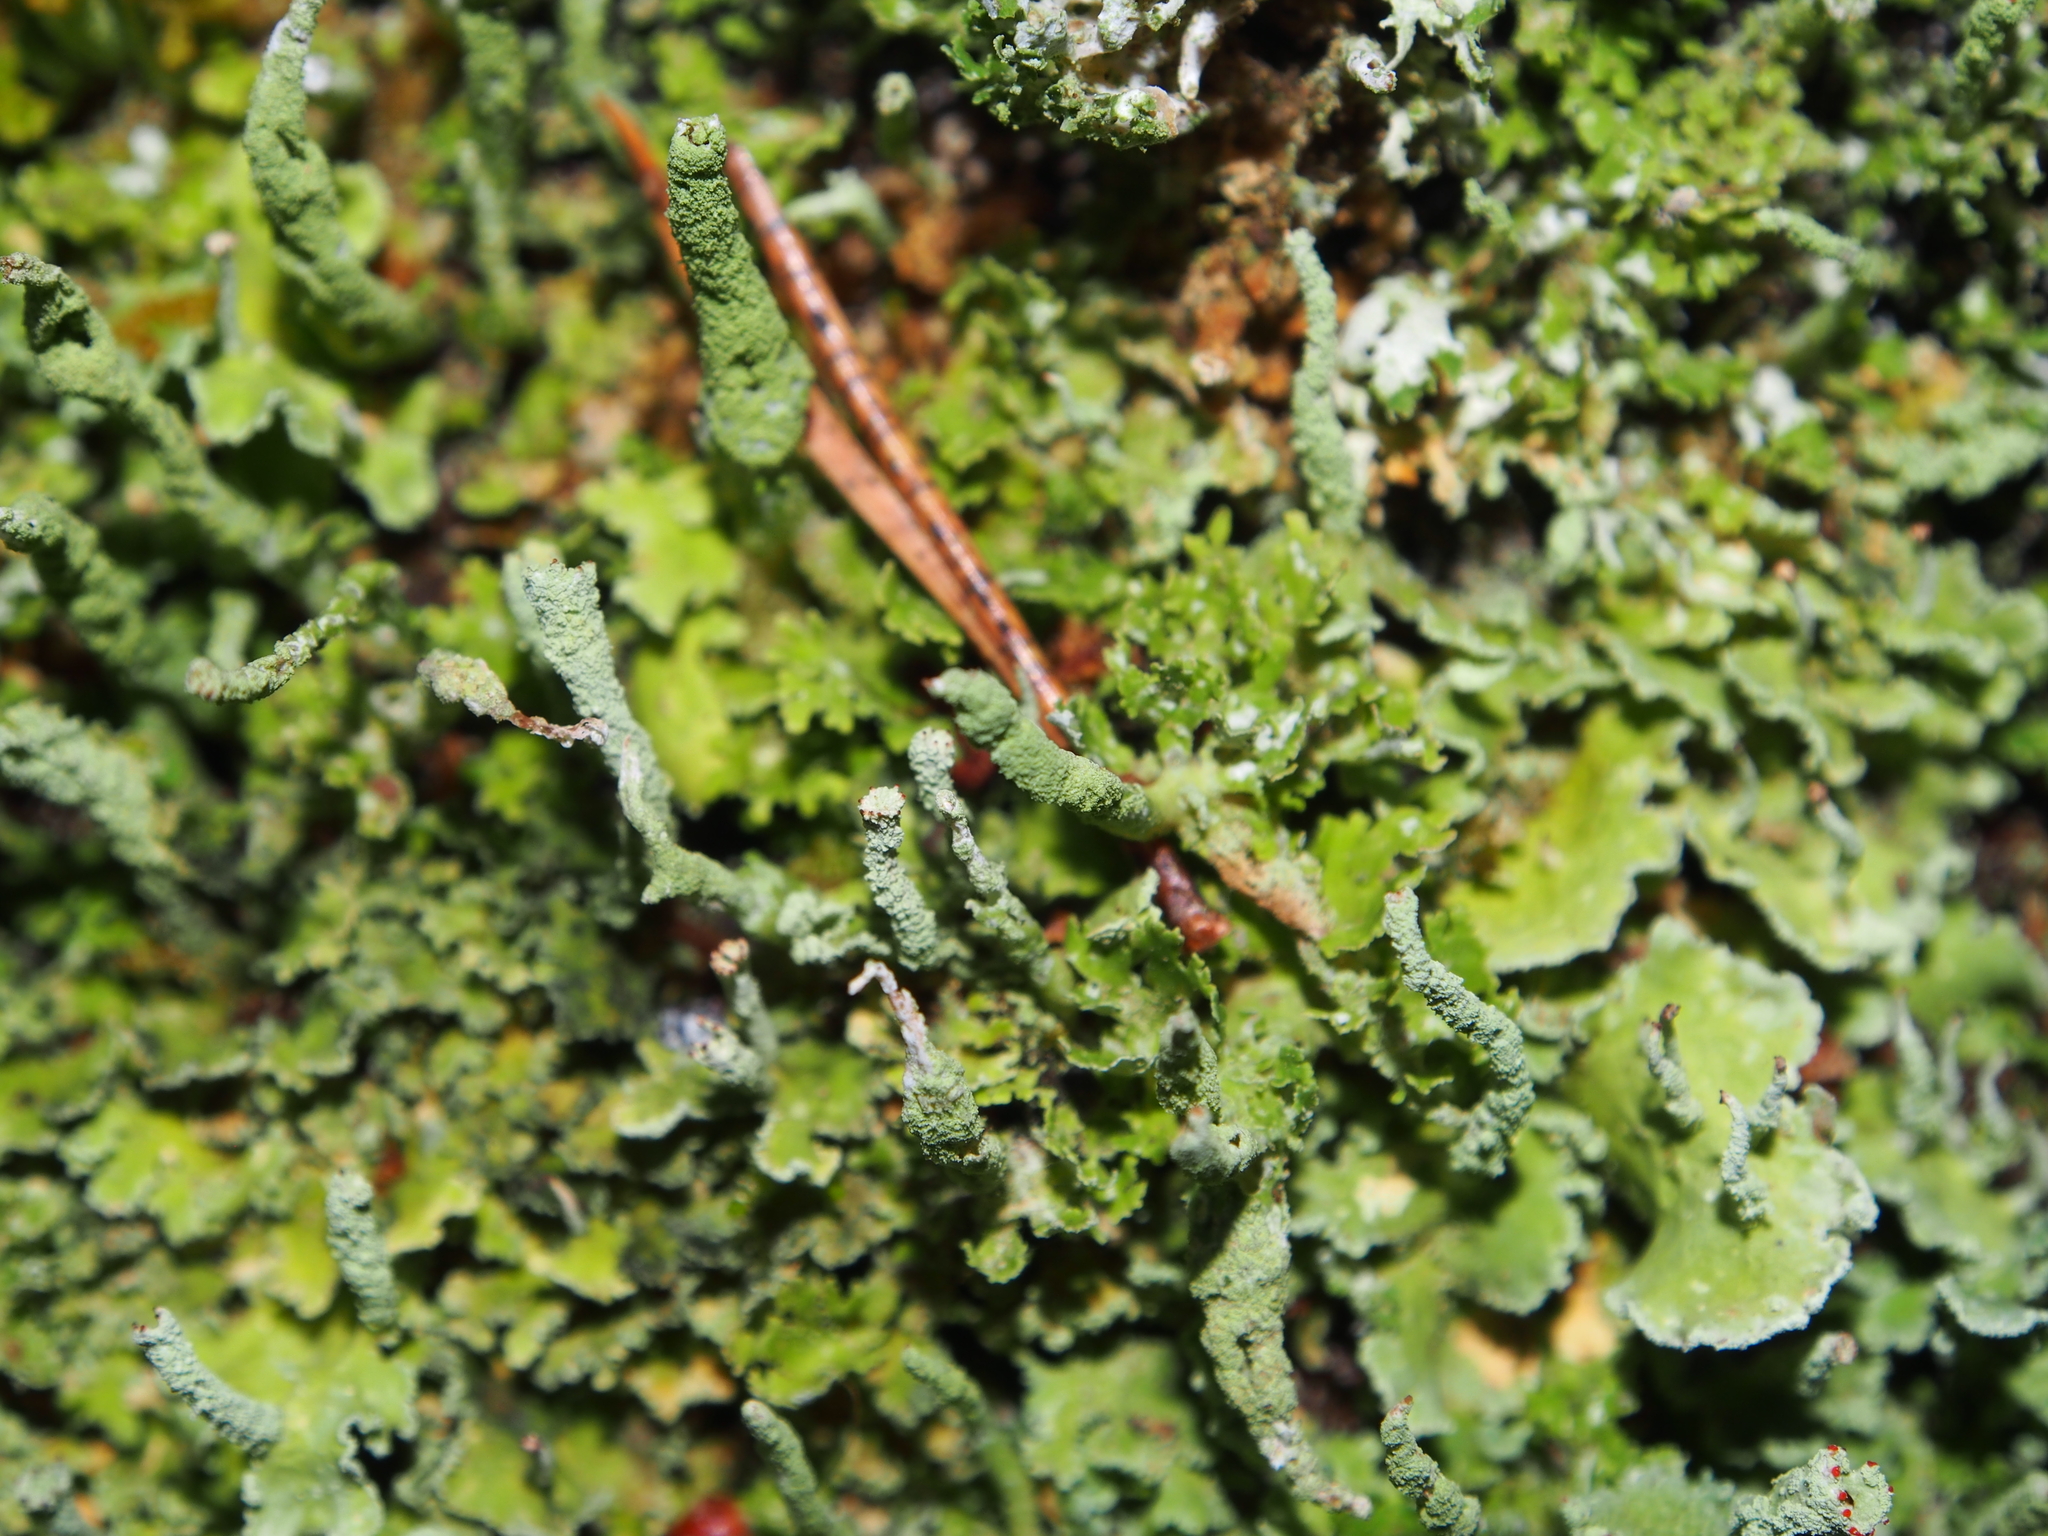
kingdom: Fungi
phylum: Ascomycota
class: Lecanoromycetes
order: Lecanorales
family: Cladoniaceae
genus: Cladonia
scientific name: Cladonia digitata
